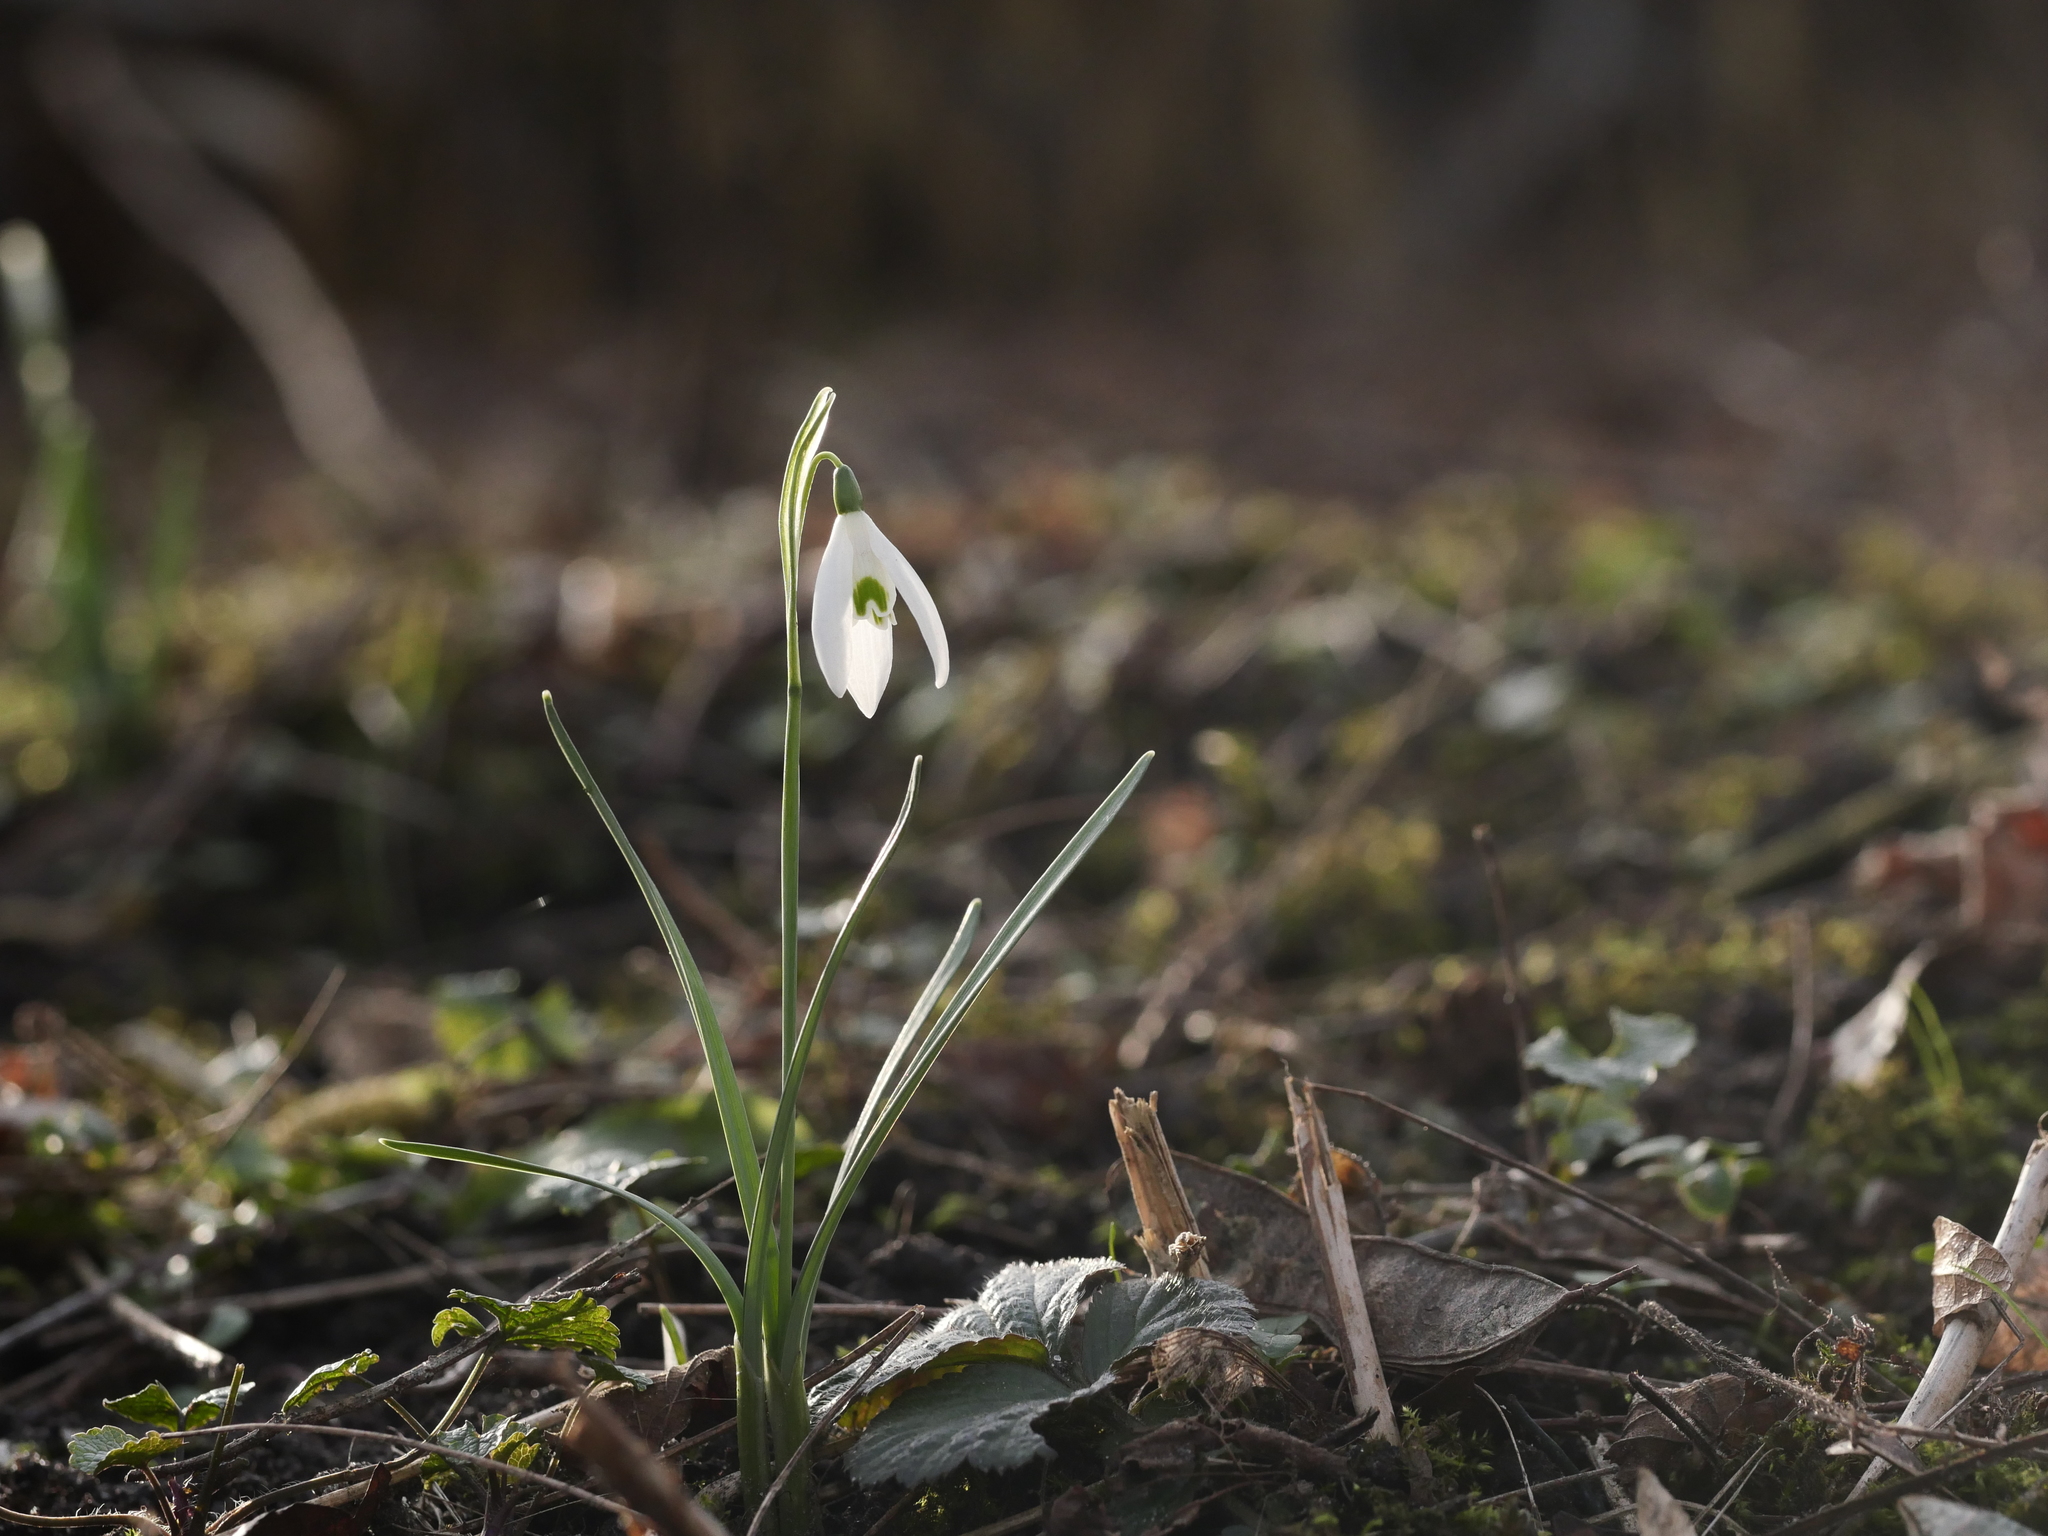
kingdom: Plantae
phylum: Tracheophyta
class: Liliopsida
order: Asparagales
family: Amaryllidaceae
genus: Galanthus
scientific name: Galanthus nivalis
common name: Snowdrop
